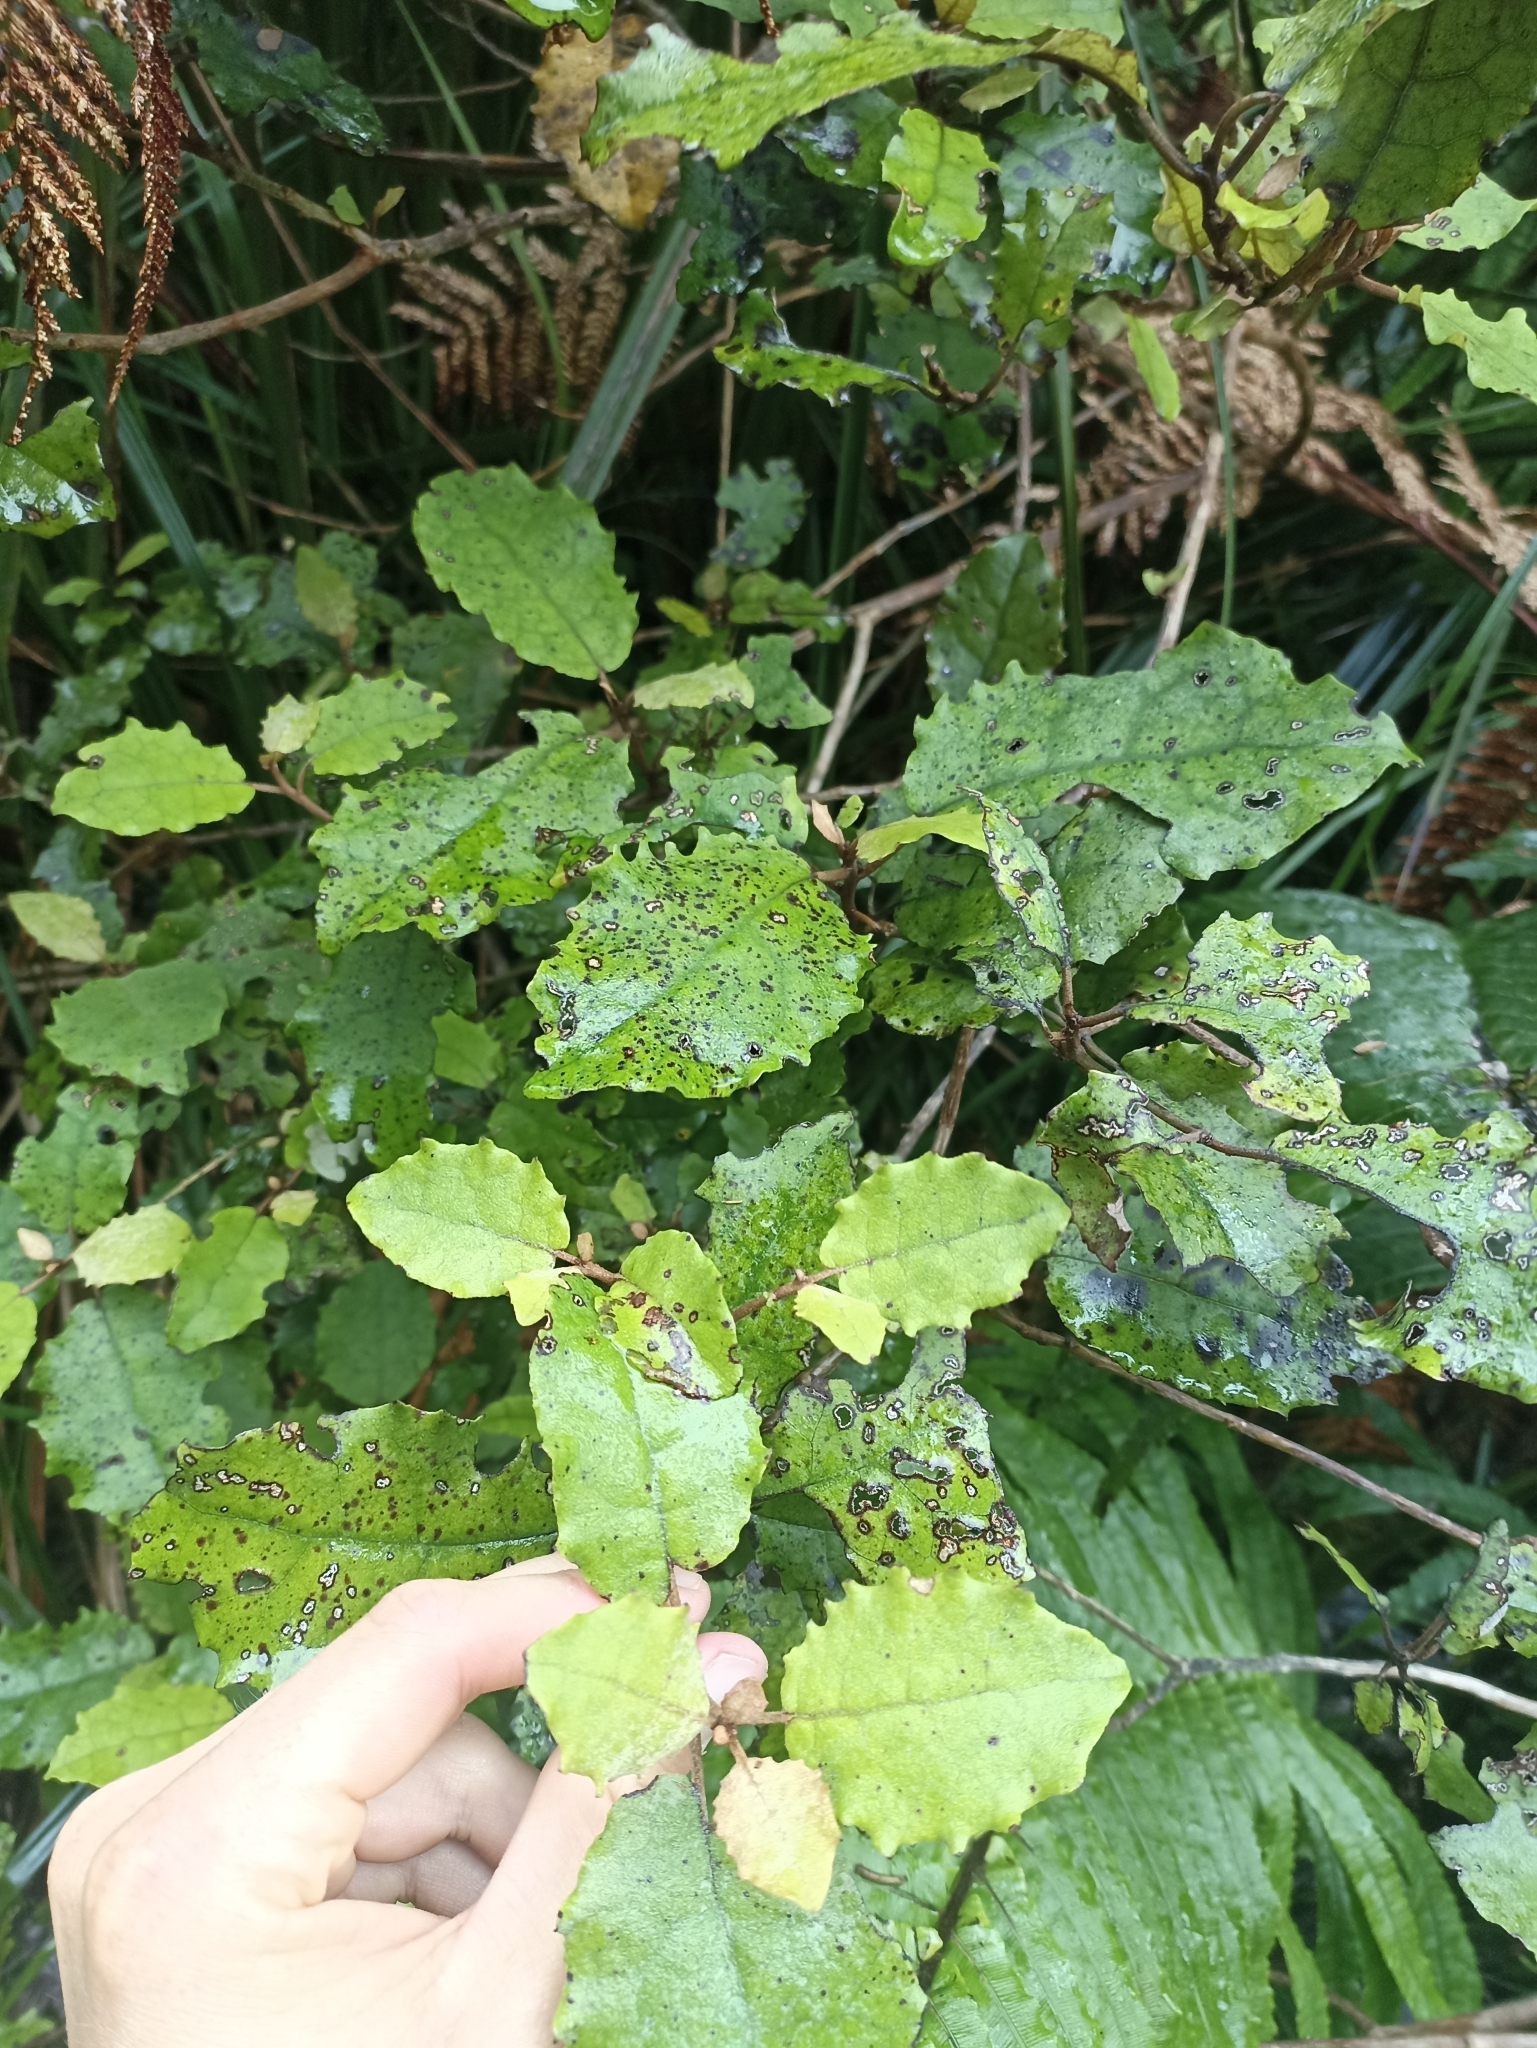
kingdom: Plantae
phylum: Tracheophyta
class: Magnoliopsida
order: Asterales
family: Asteraceae
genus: Olearia
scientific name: Olearia rani
